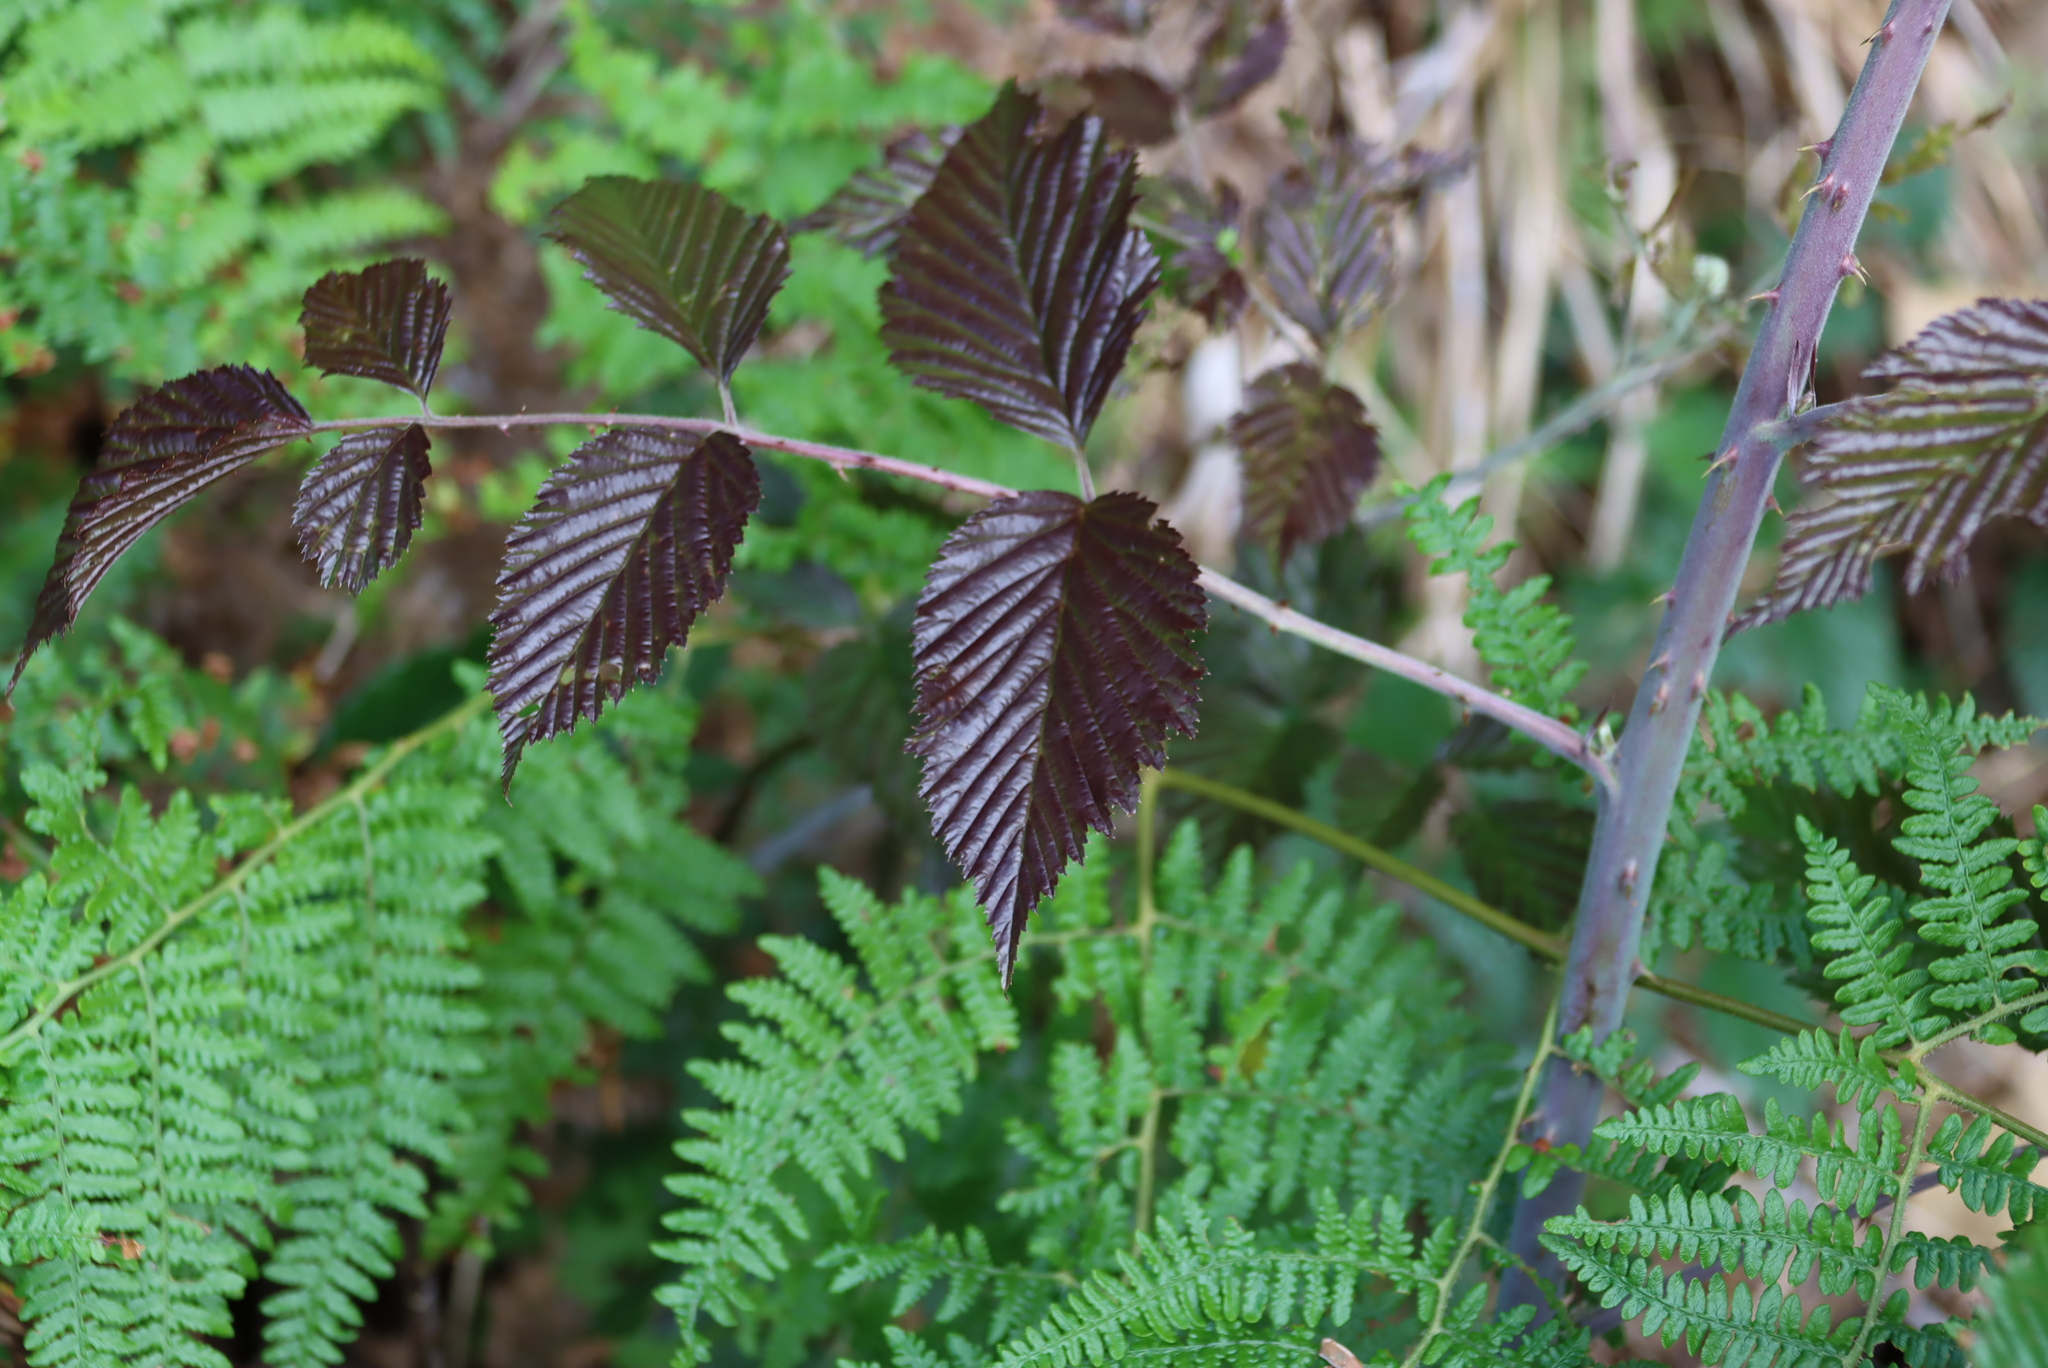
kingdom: Plantae
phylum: Tracheophyta
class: Magnoliopsida
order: Rosales
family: Rosaceae
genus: Rubus
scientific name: Rubus pinnatus
